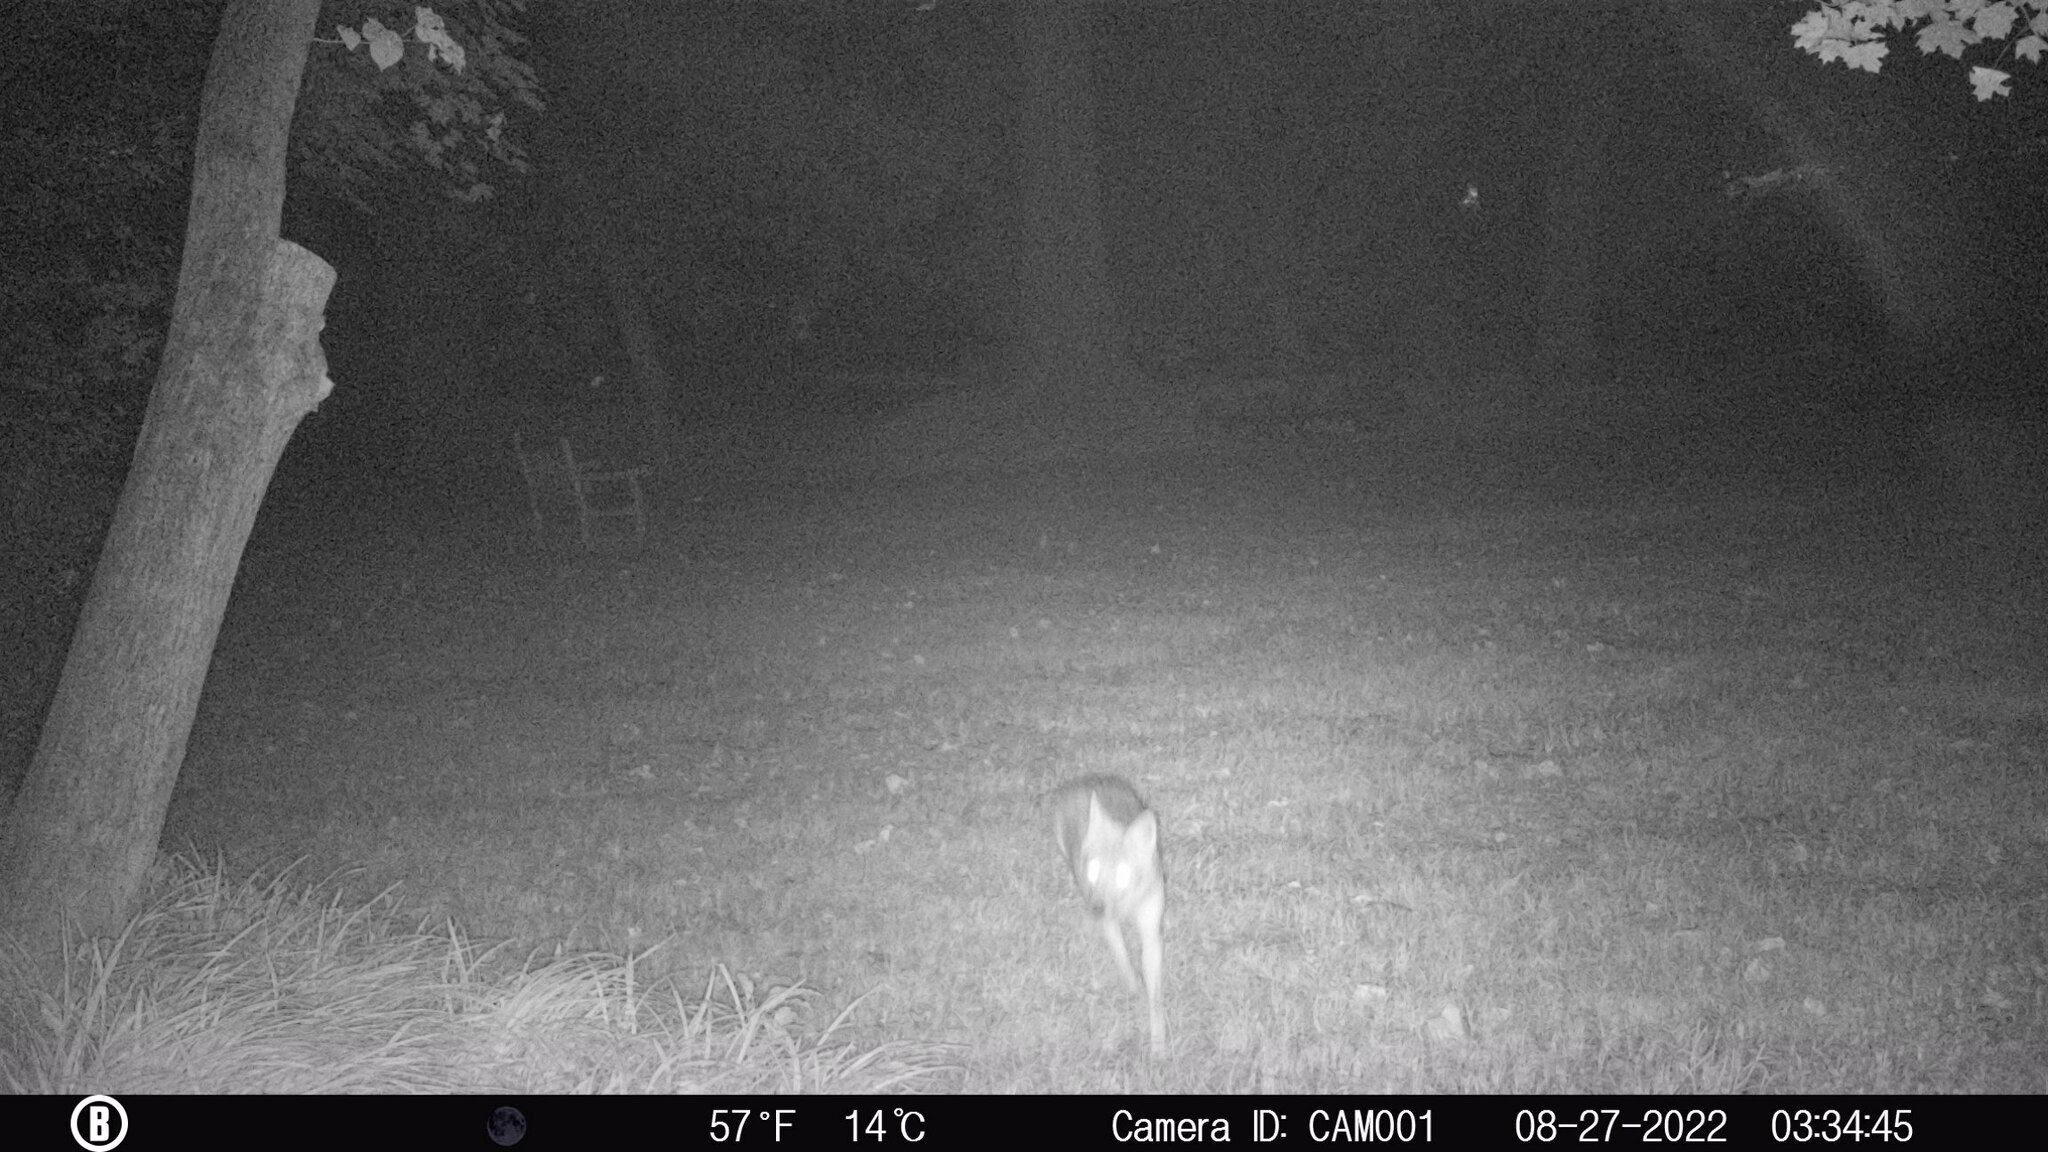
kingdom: Animalia
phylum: Chordata
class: Mammalia
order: Carnivora
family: Canidae
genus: Canis
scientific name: Canis latrans
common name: Coyote
